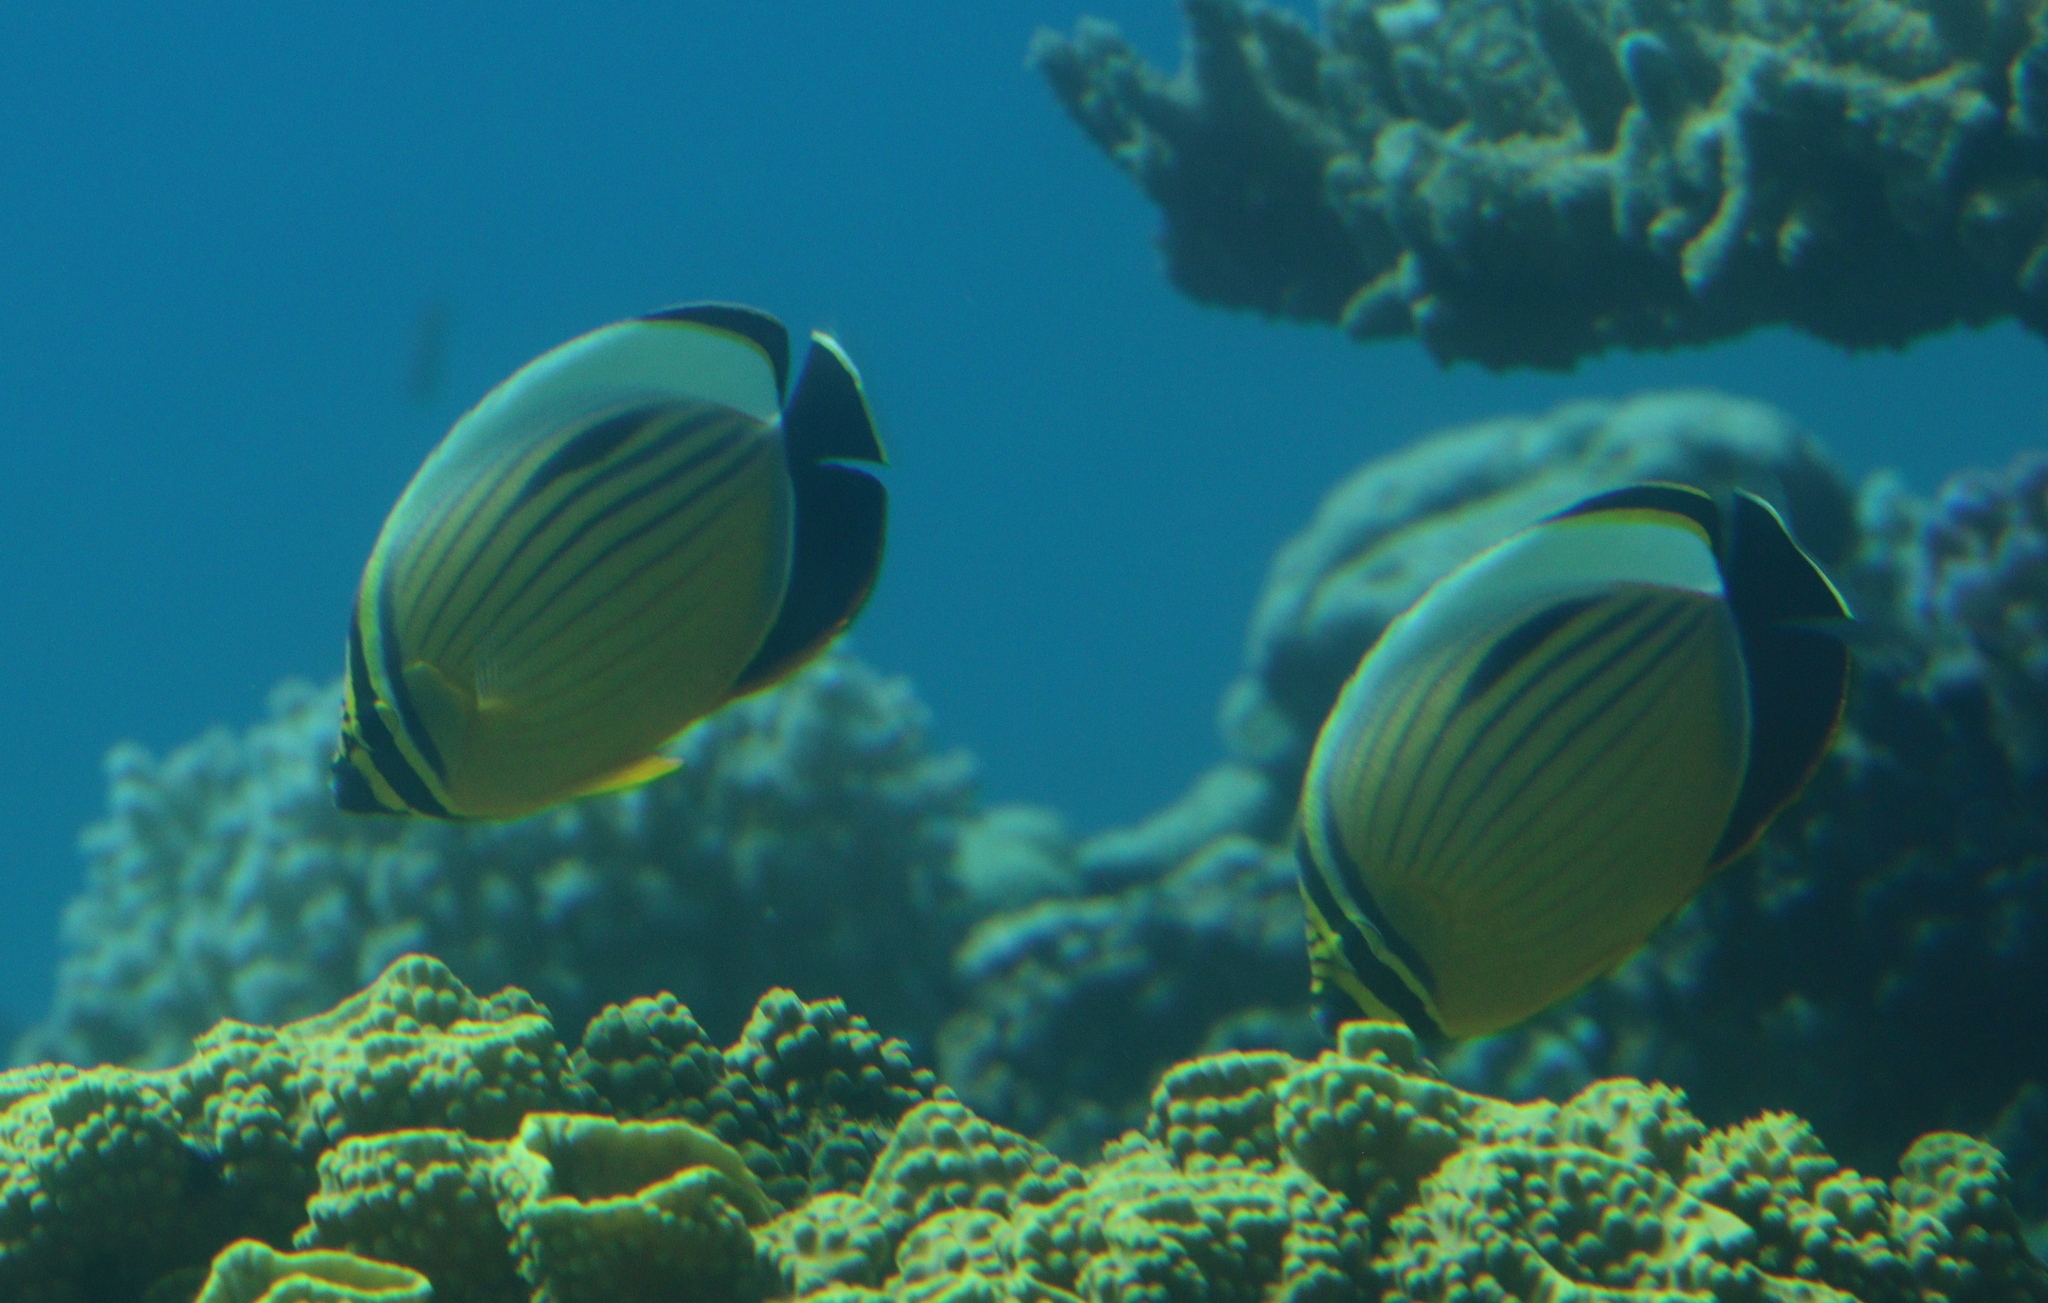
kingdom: Animalia
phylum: Chordata
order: Perciformes
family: Chaetodontidae
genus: Chaetodon
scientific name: Chaetodon austriacus
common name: Exquisite butterflyfish
